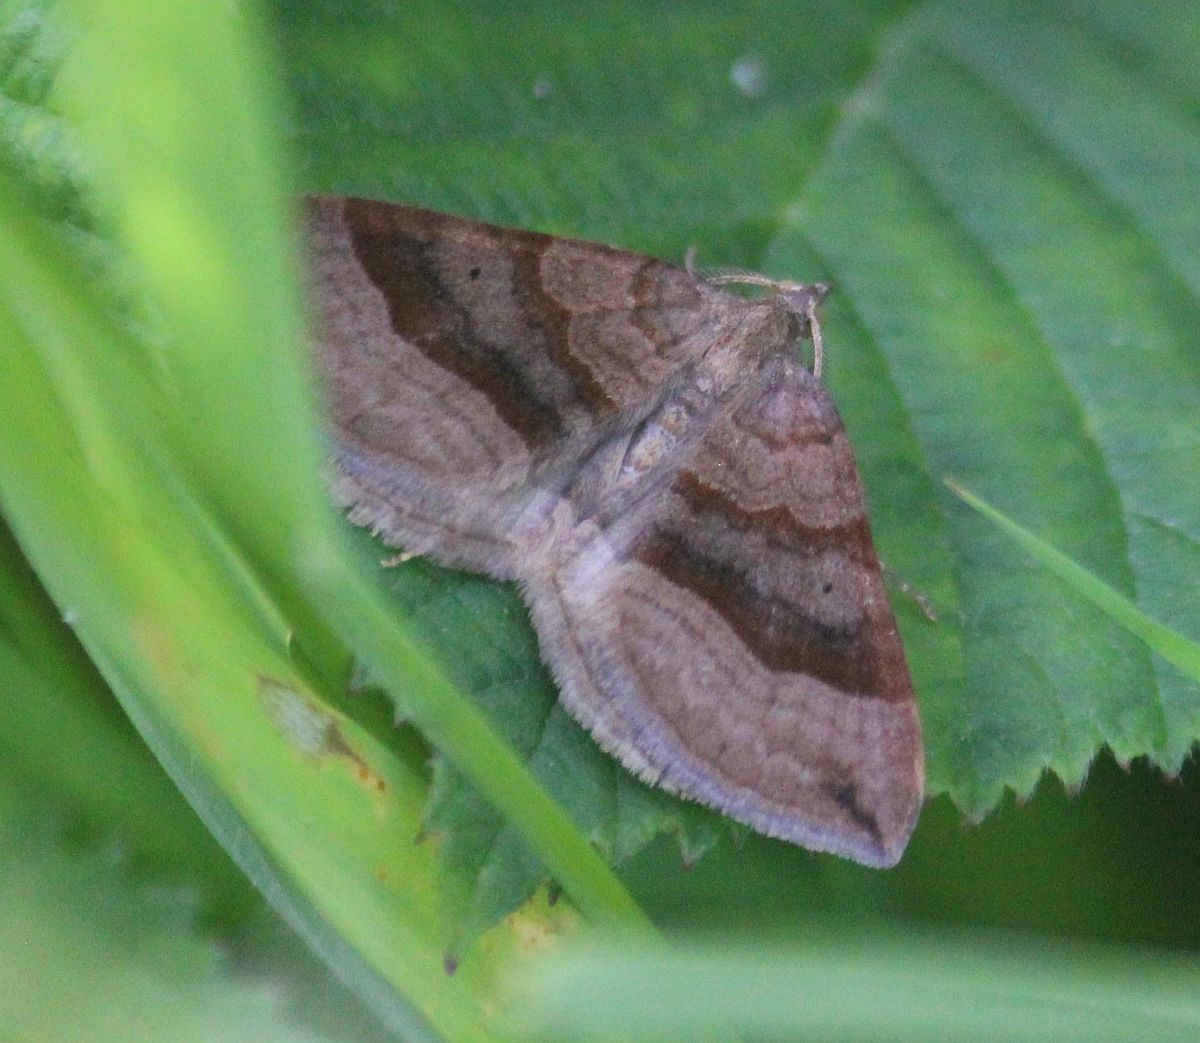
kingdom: Animalia
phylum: Arthropoda
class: Insecta
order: Lepidoptera
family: Geometridae
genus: Scotopteryx
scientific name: Scotopteryx chenopodiata
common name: Shaded broad-bar
